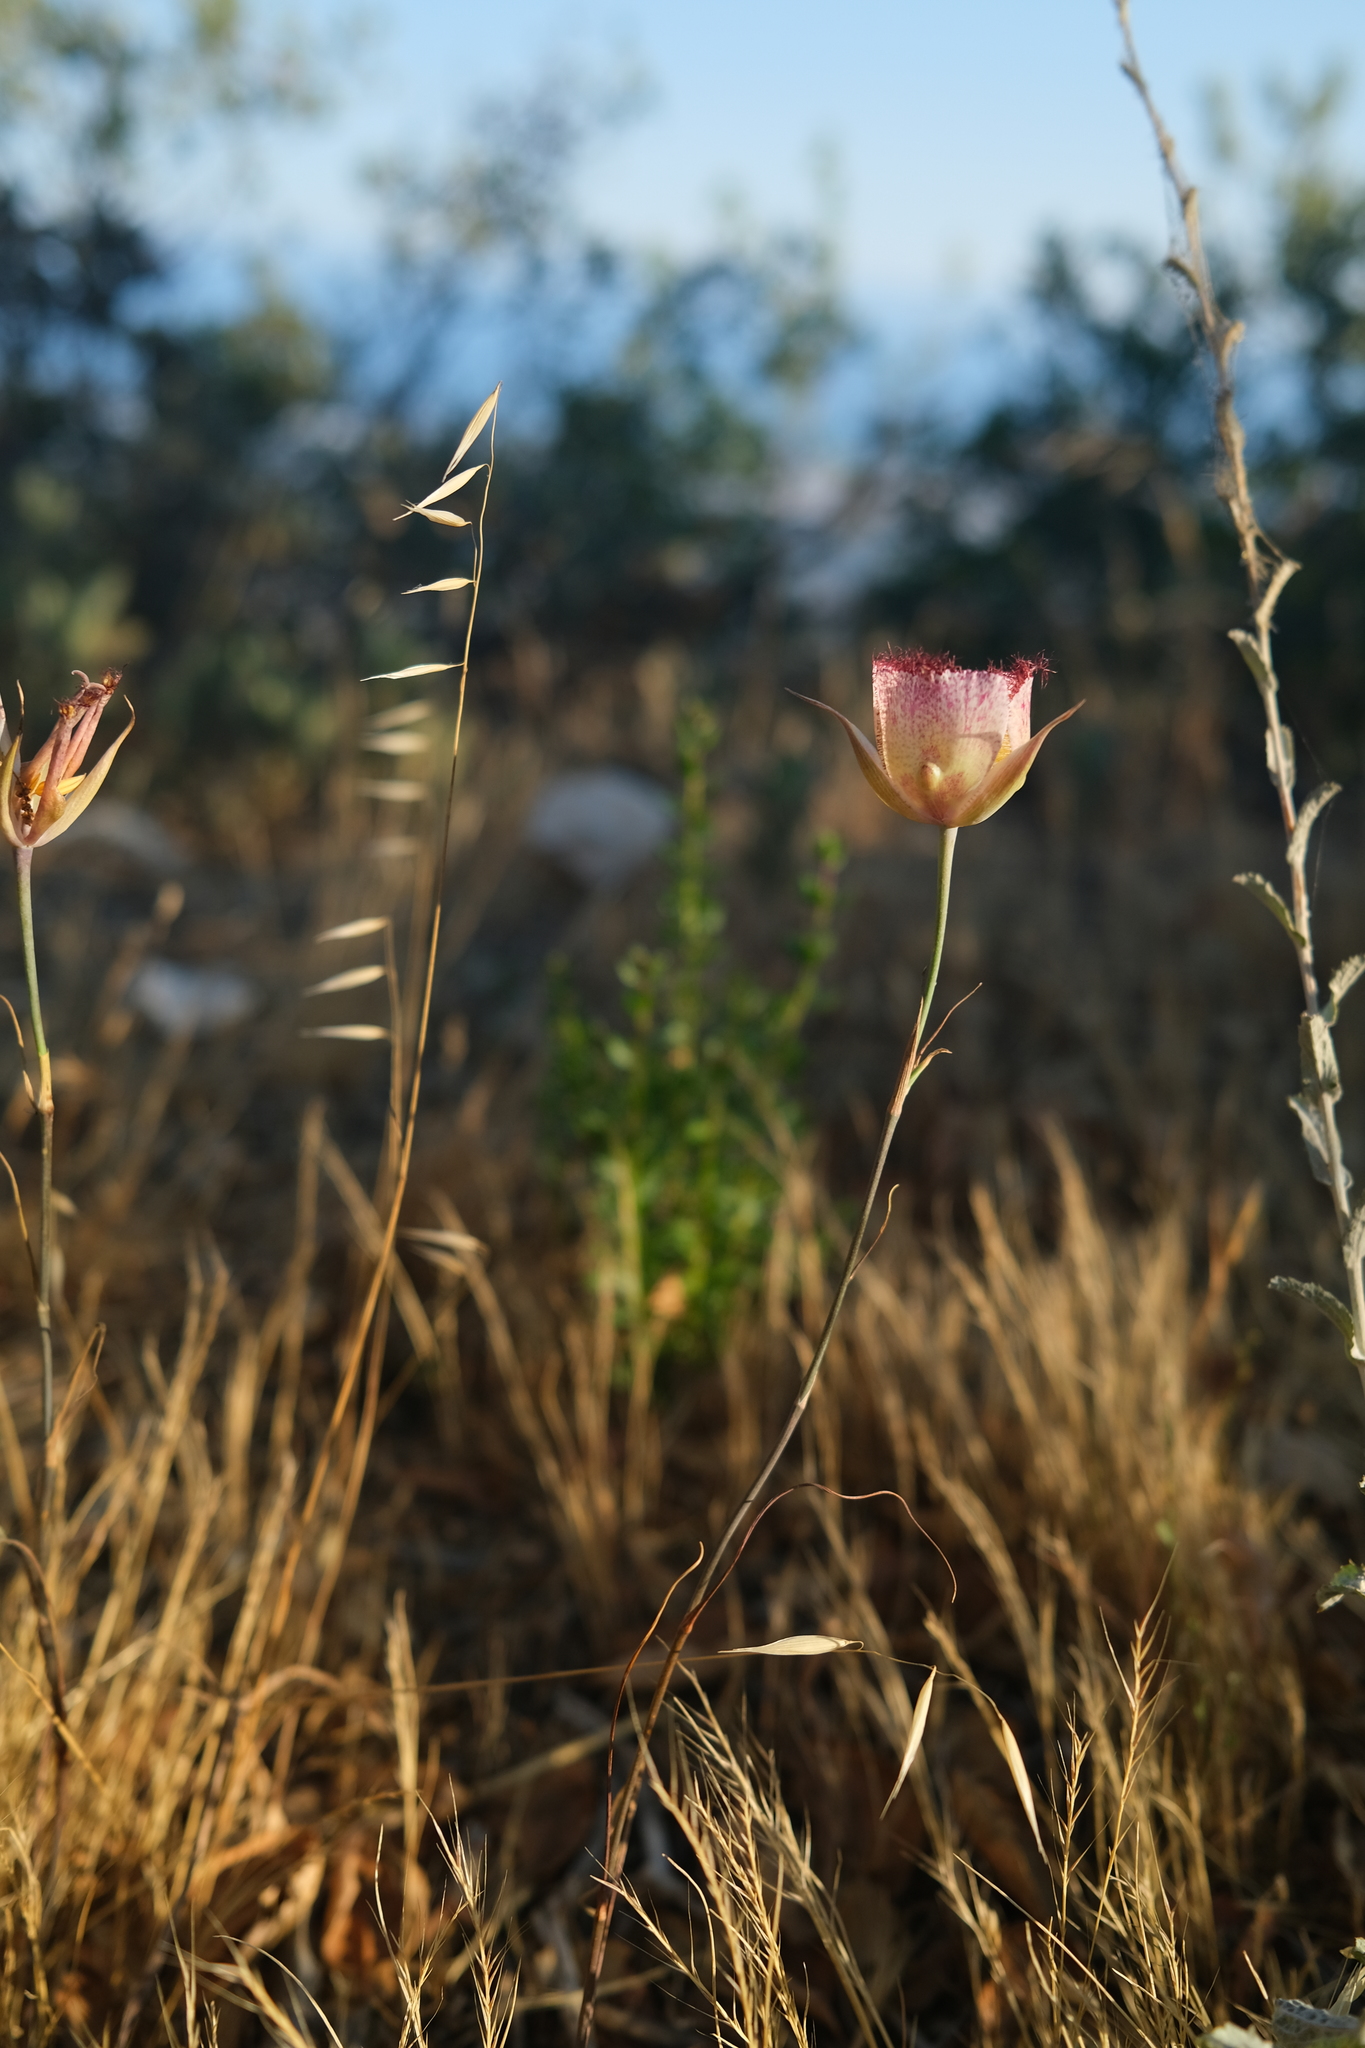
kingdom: Plantae
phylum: Tracheophyta
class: Liliopsida
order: Liliales
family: Liliaceae
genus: Calochortus
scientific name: Calochortus fimbriatus
